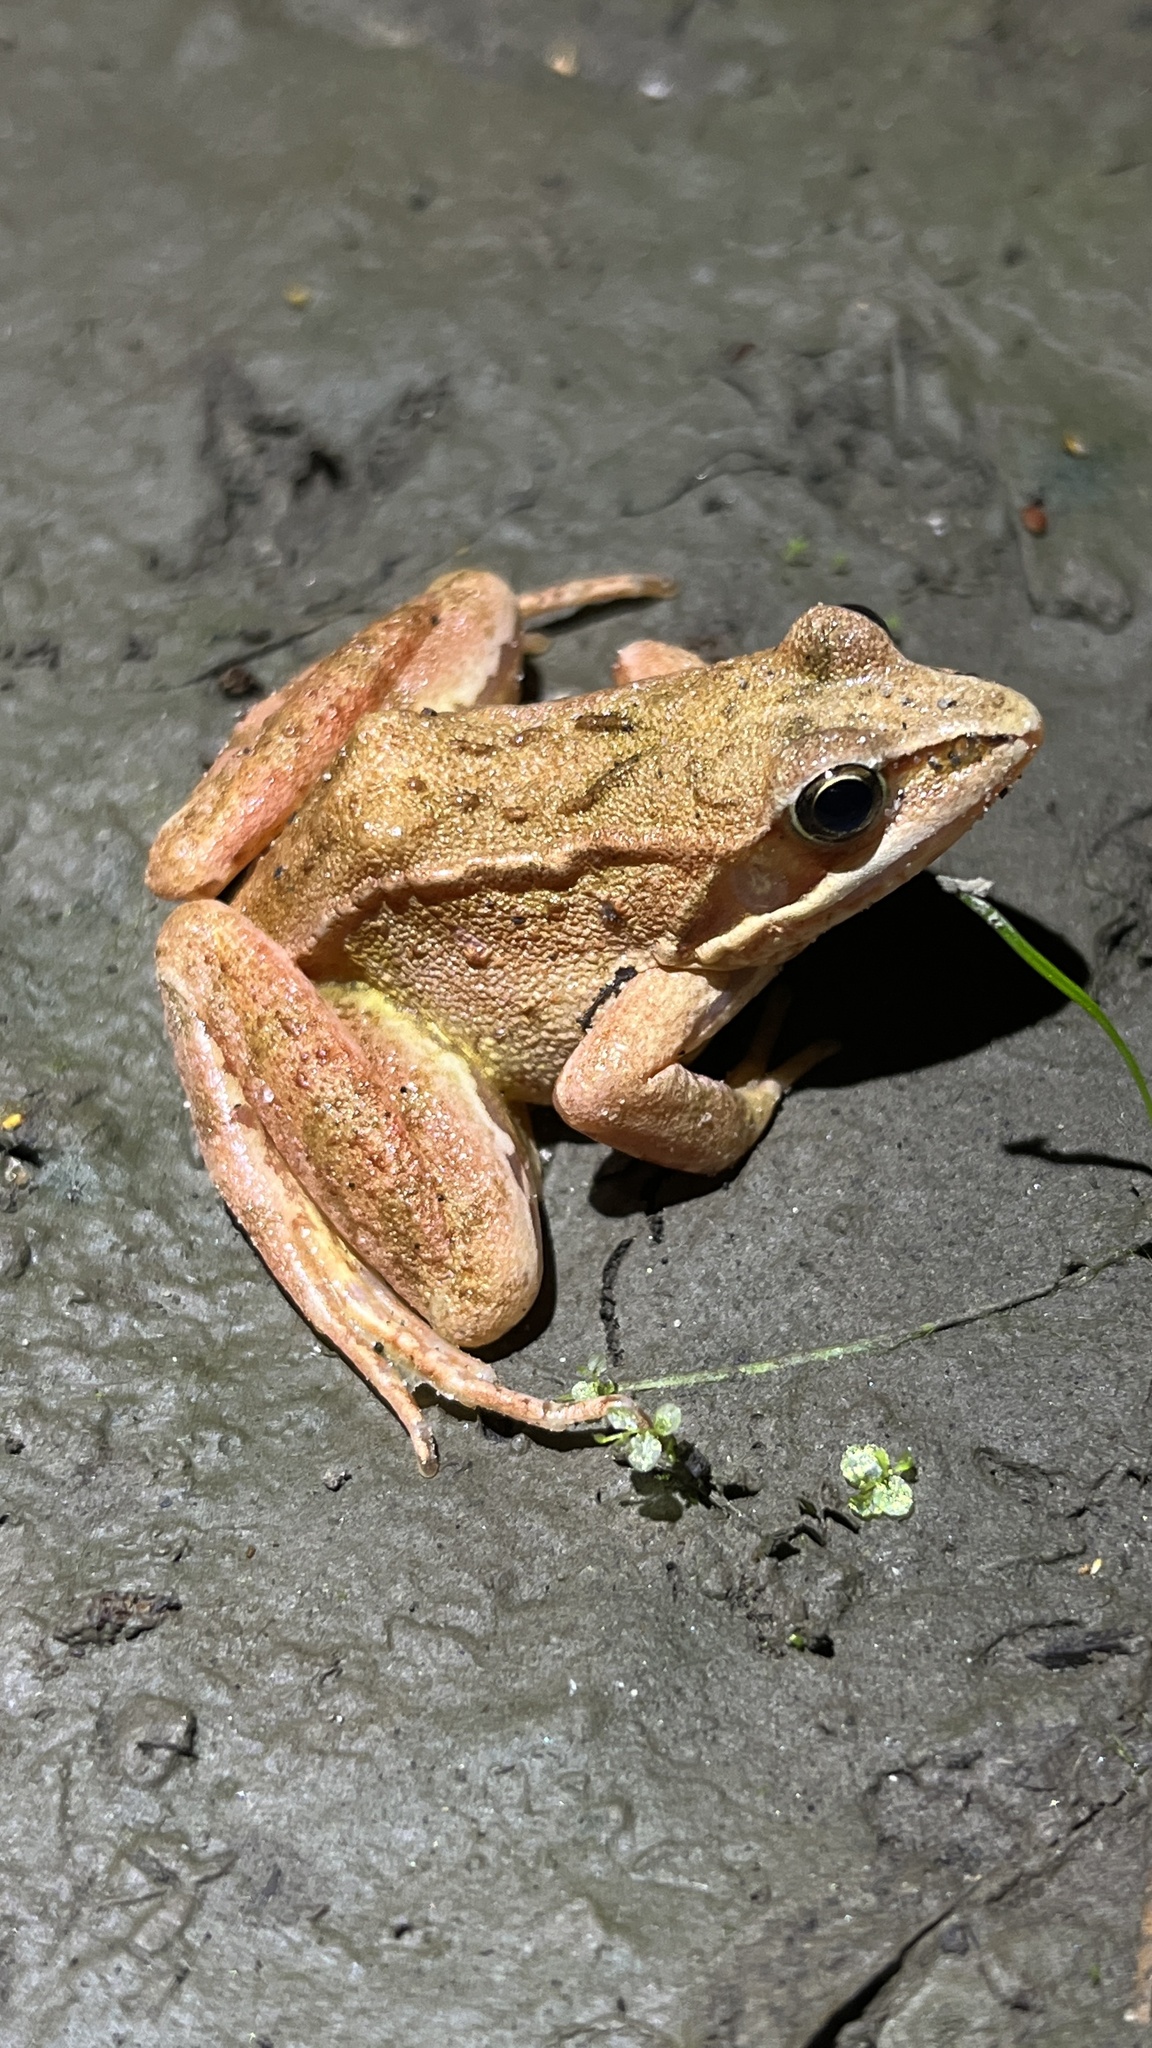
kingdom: Animalia
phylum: Chordata
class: Amphibia
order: Anura
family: Ranidae
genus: Rana
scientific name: Rana arvalis
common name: Moor frog
